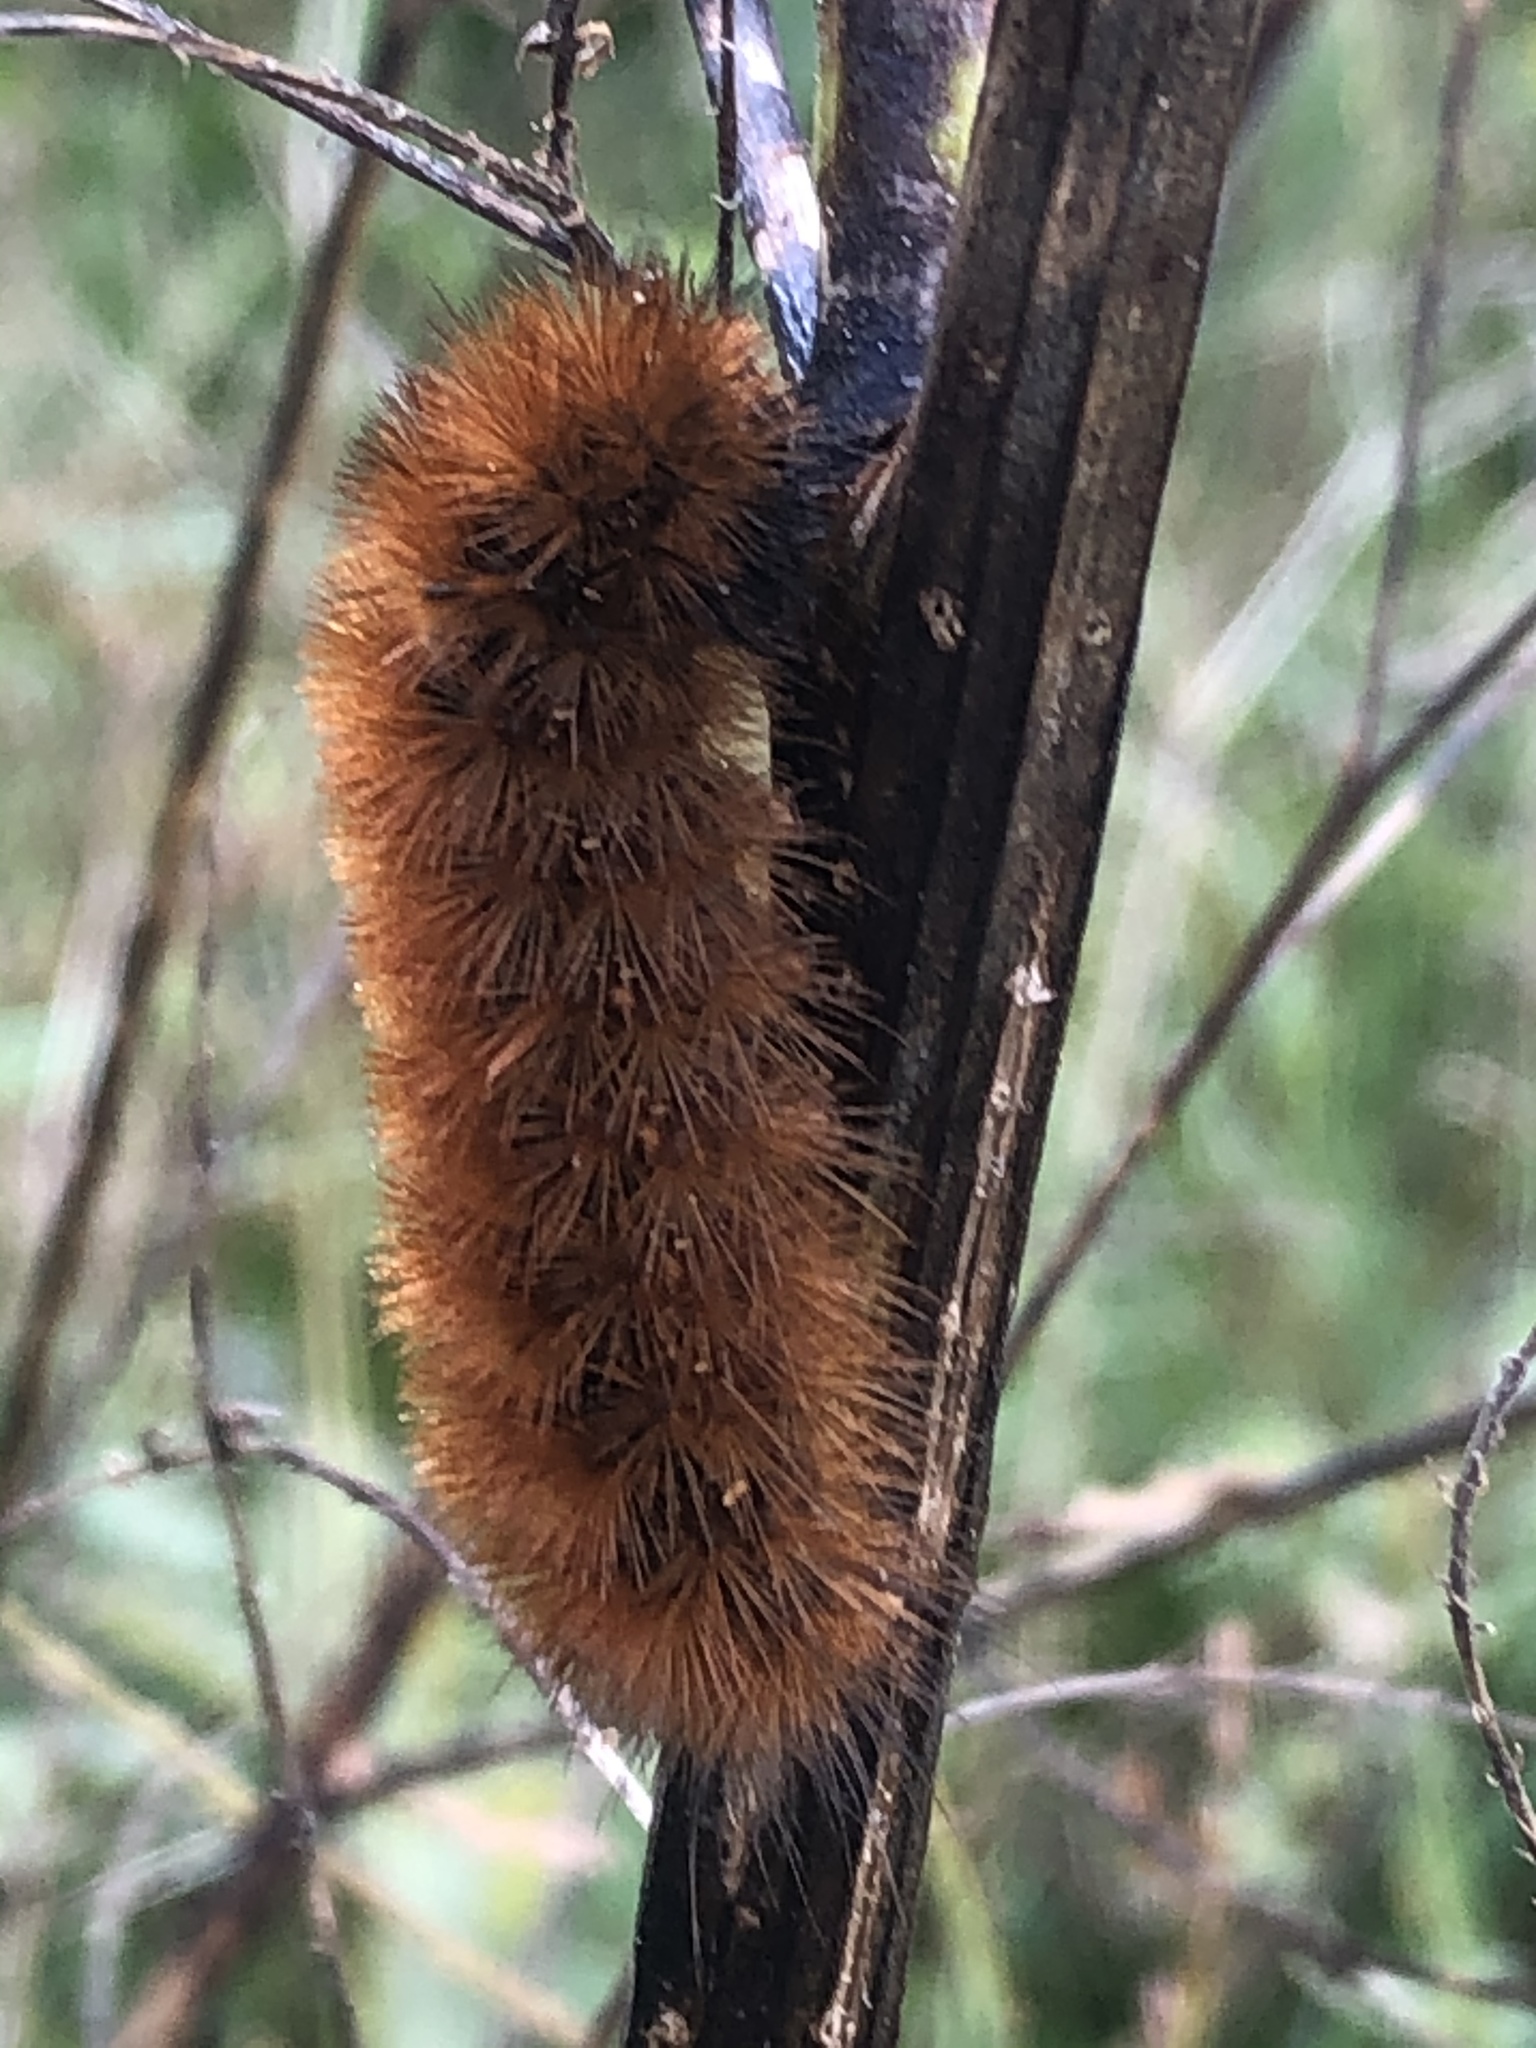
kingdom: Animalia
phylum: Arthropoda
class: Insecta
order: Lepidoptera
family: Erebidae
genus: Spilosoma
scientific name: Spilosoma virginica
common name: Virginia tiger moth
